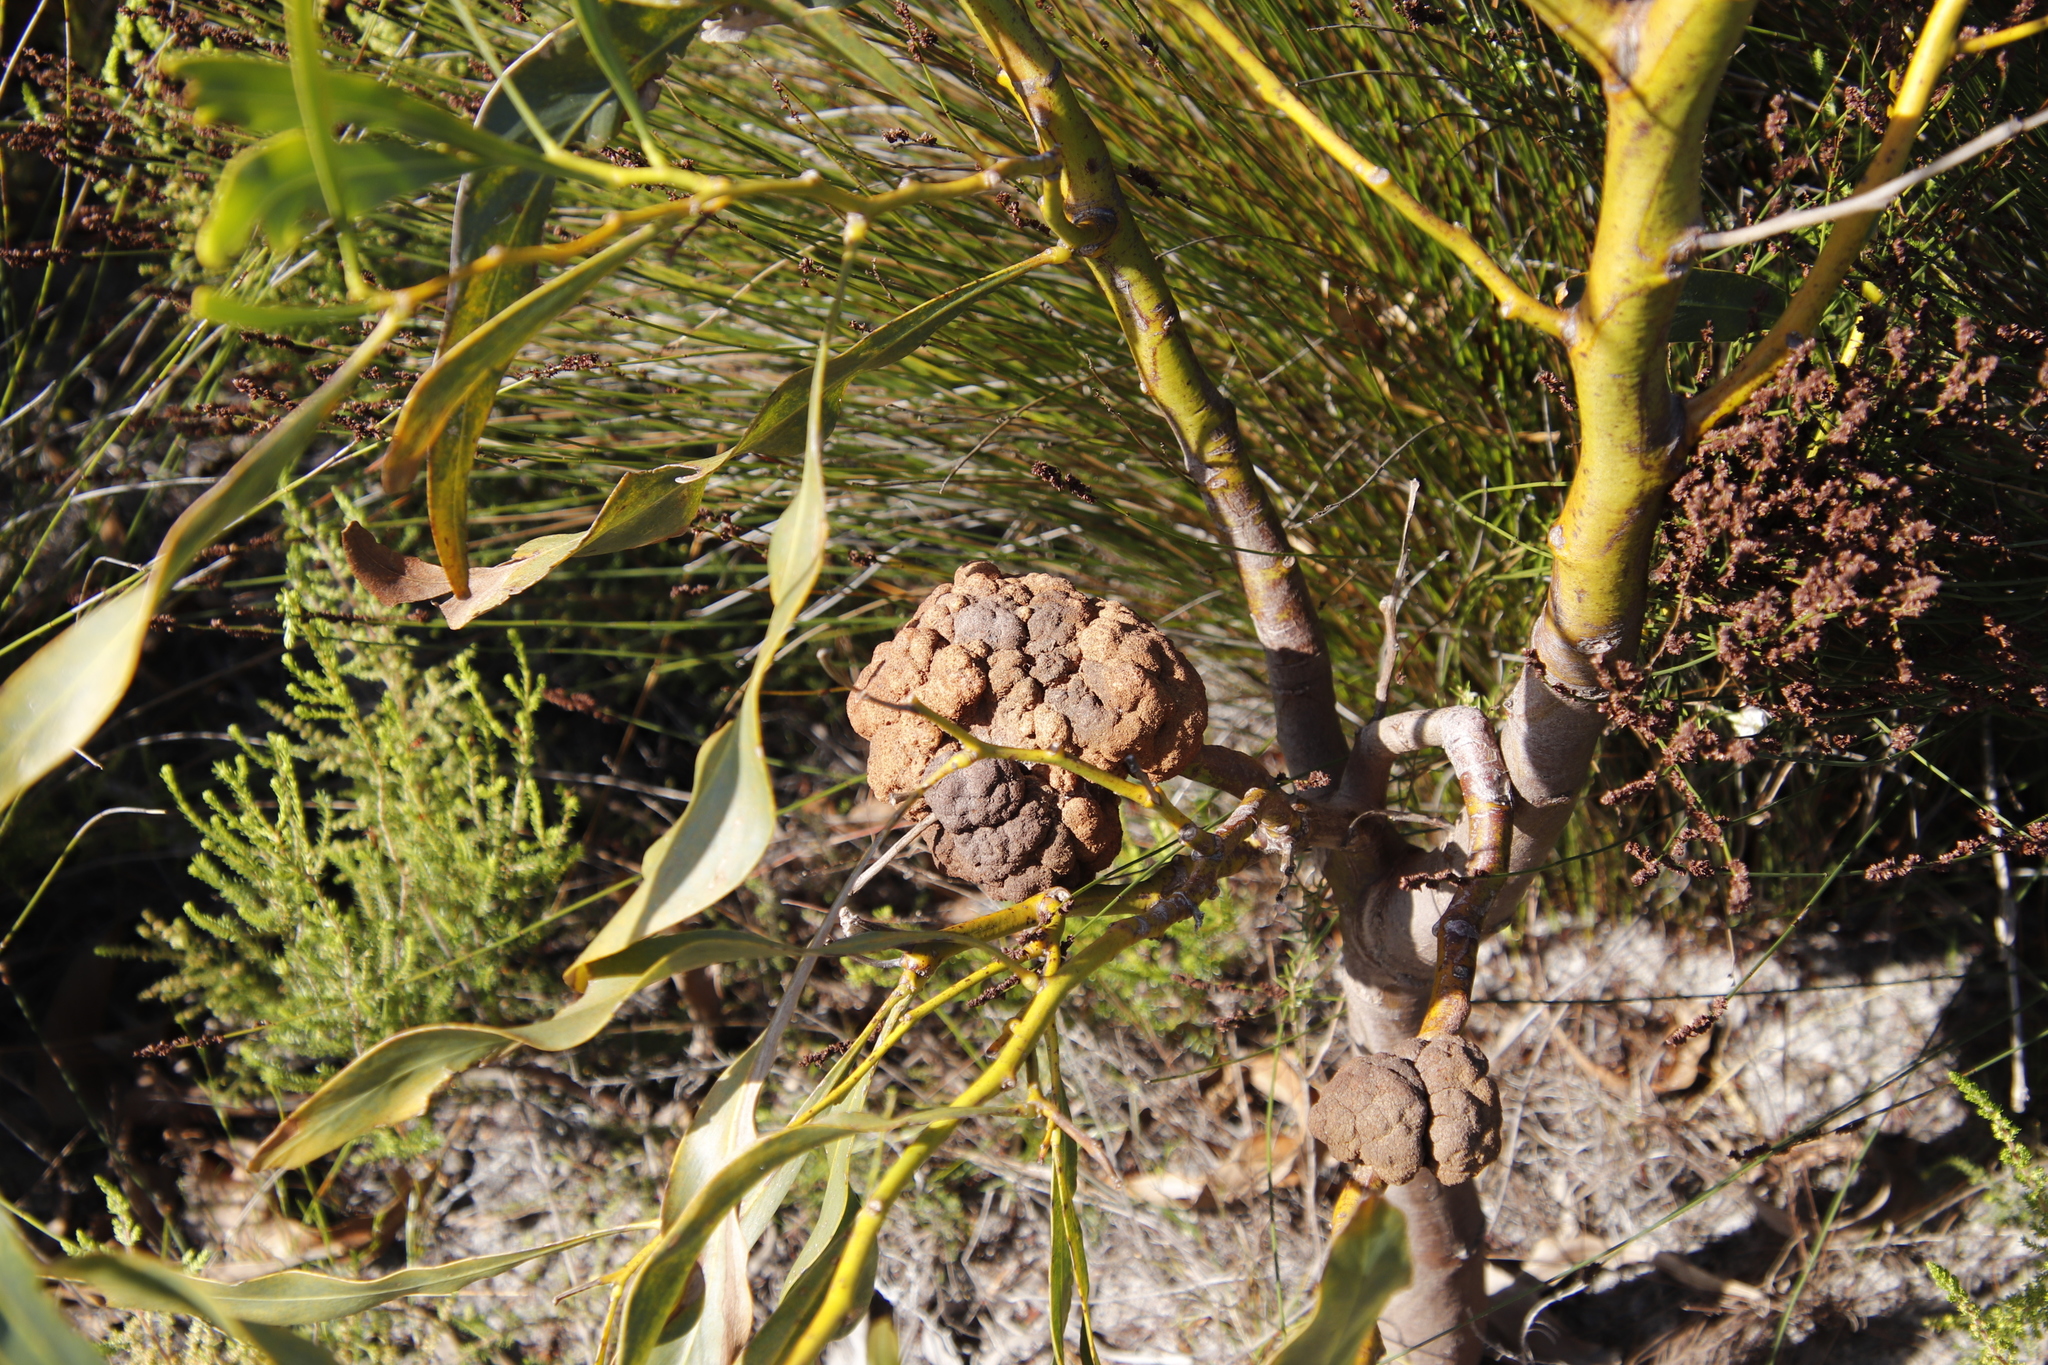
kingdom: Fungi
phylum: Basidiomycota
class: Pucciniomycetes
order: Pucciniales
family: Uromycladiaceae
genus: Uromycladium
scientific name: Uromycladium morrisii
